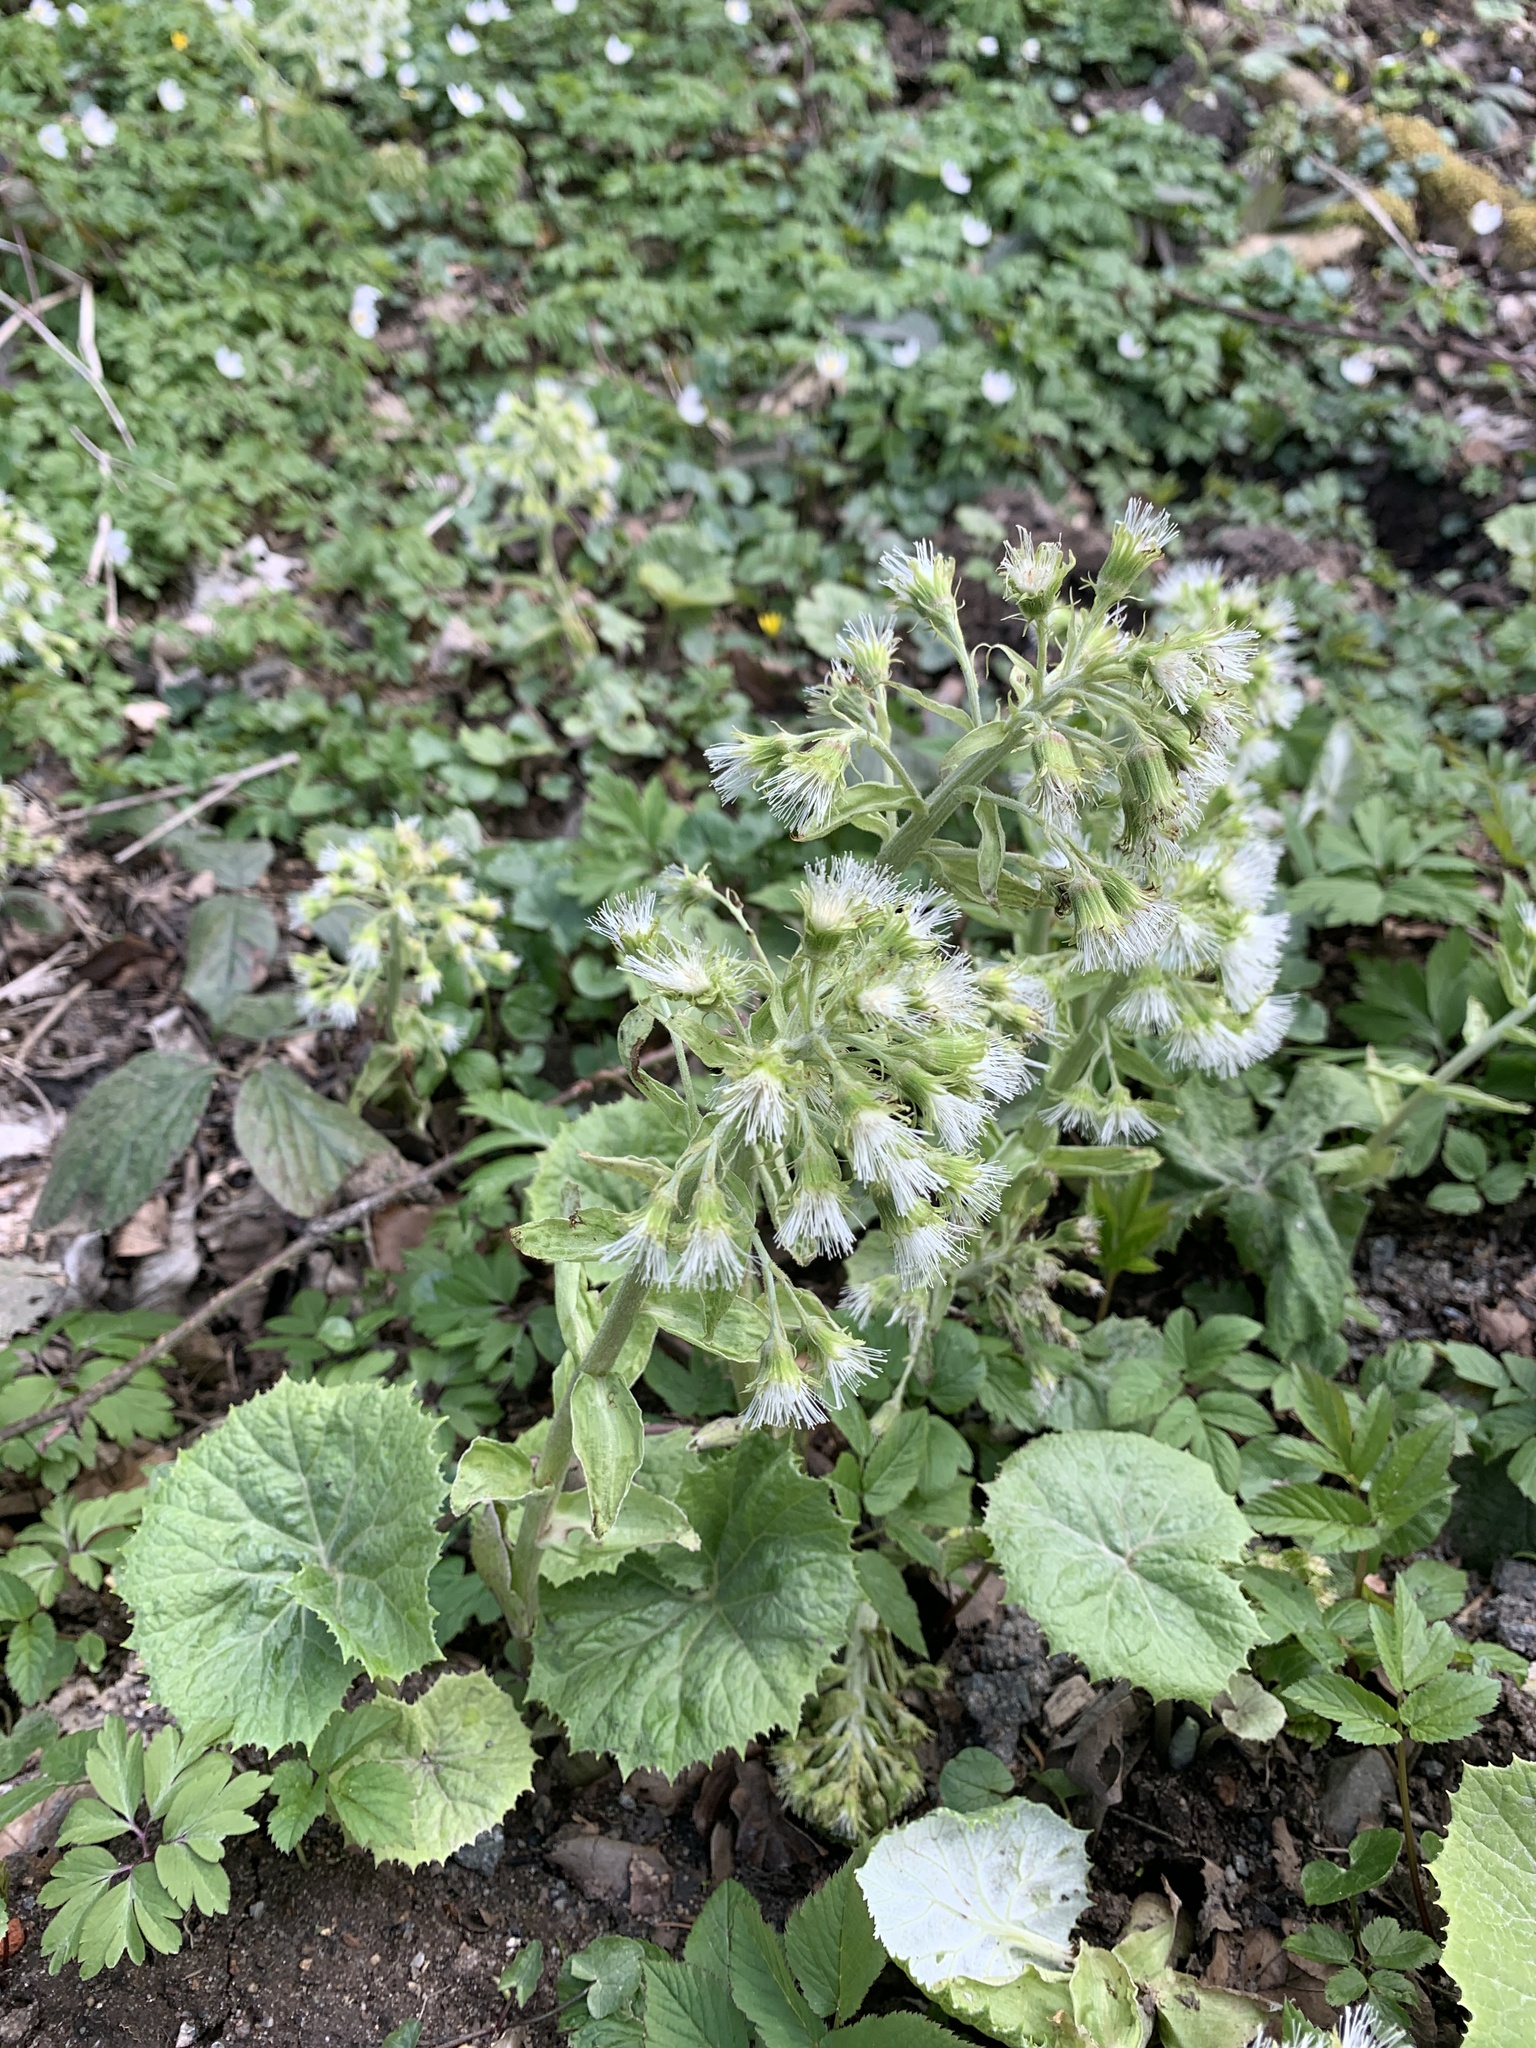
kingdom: Plantae
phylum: Tracheophyta
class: Magnoliopsida
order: Asterales
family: Asteraceae
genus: Petasites
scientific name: Petasites albus
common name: White butterbur
